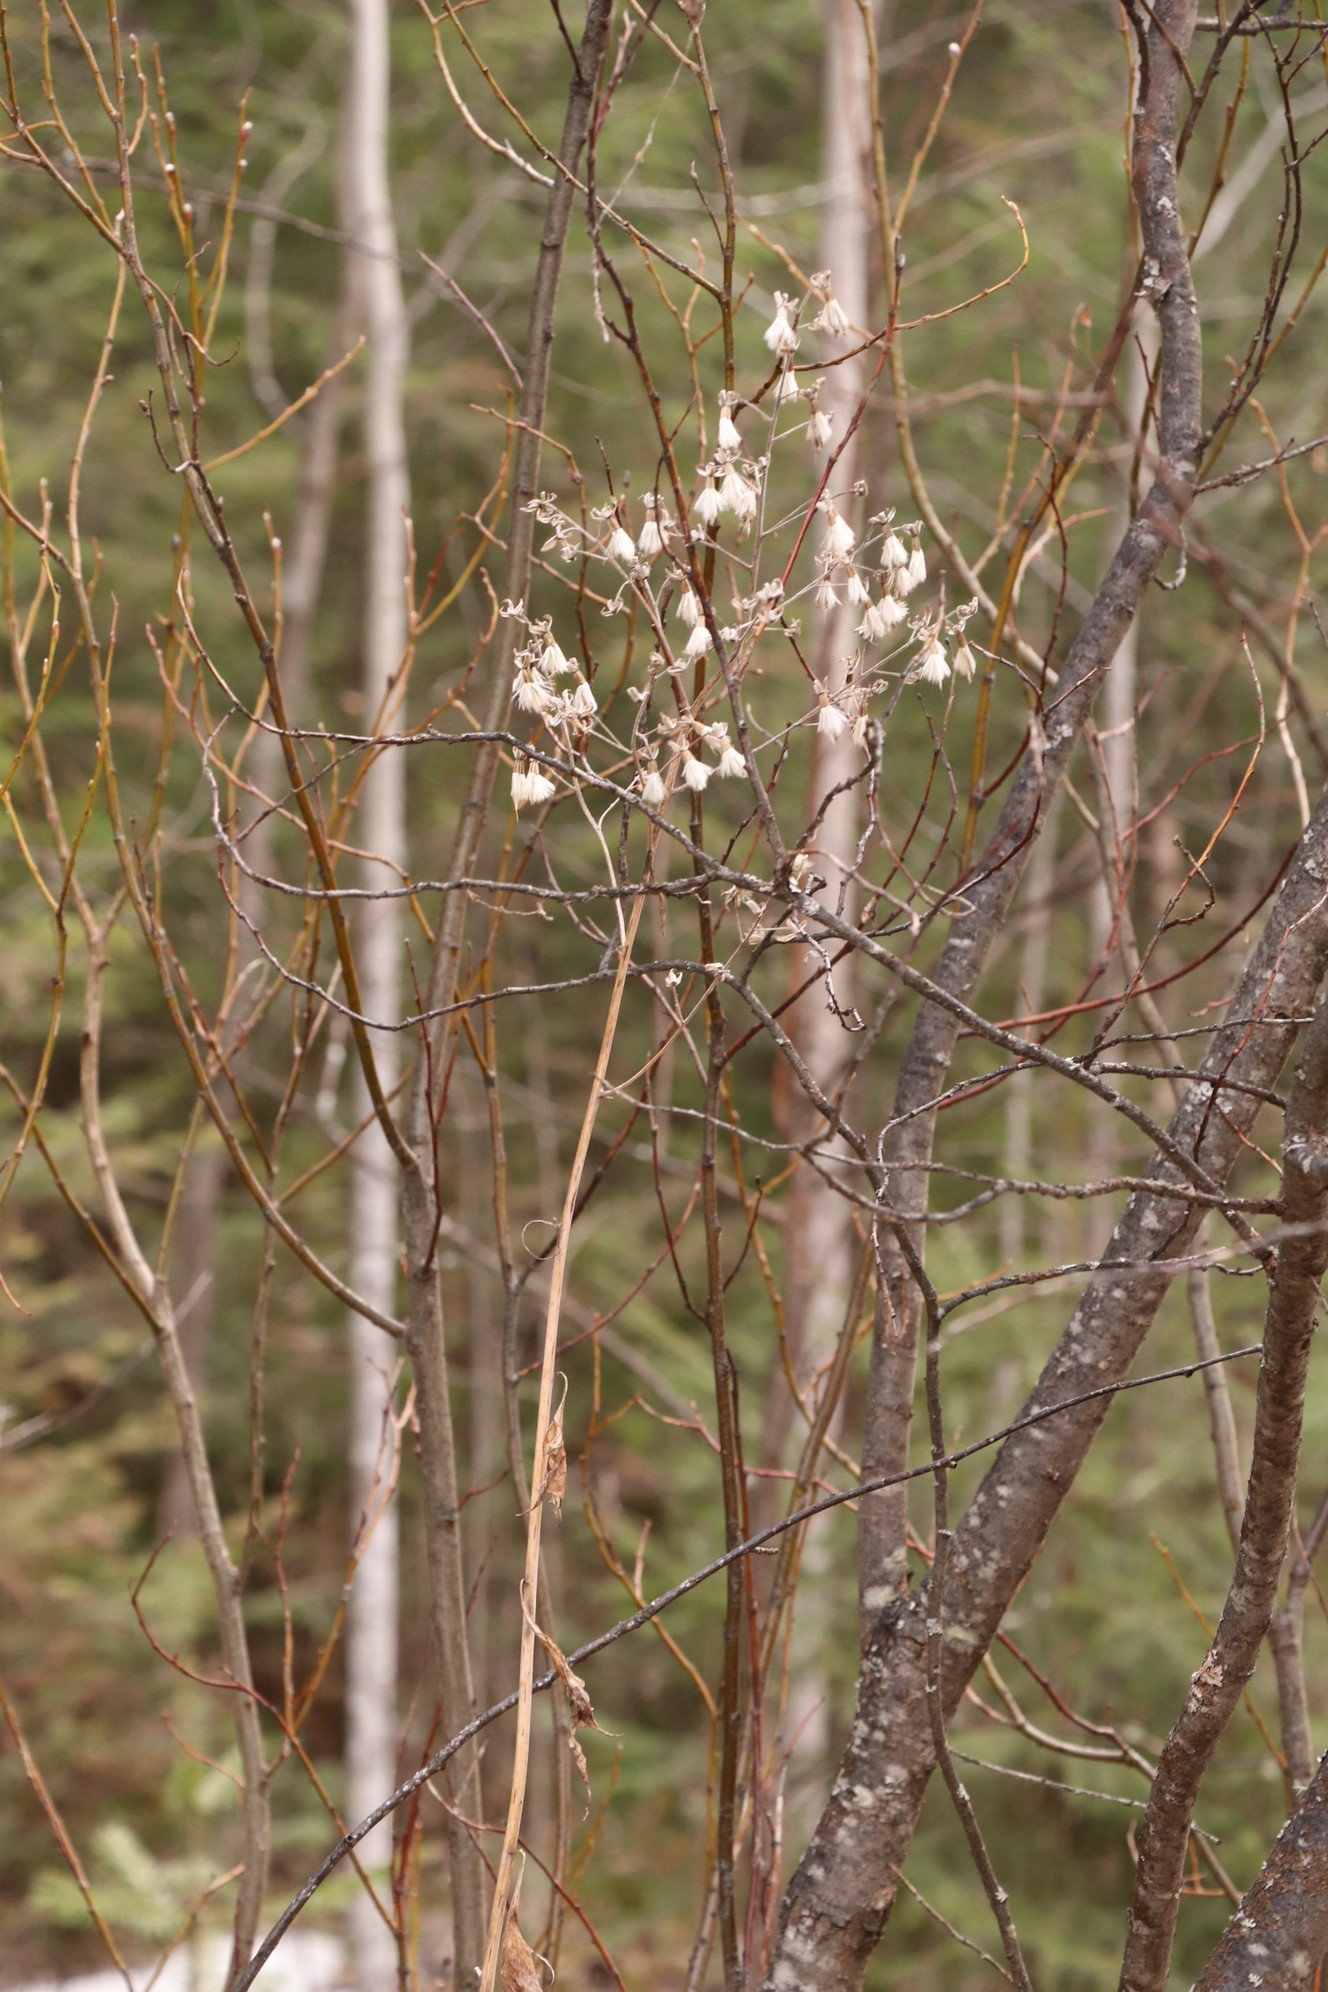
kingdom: Plantae
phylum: Tracheophyta
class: Magnoliopsida
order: Asterales
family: Asteraceae
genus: Parasenecio
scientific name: Parasenecio hastatus
